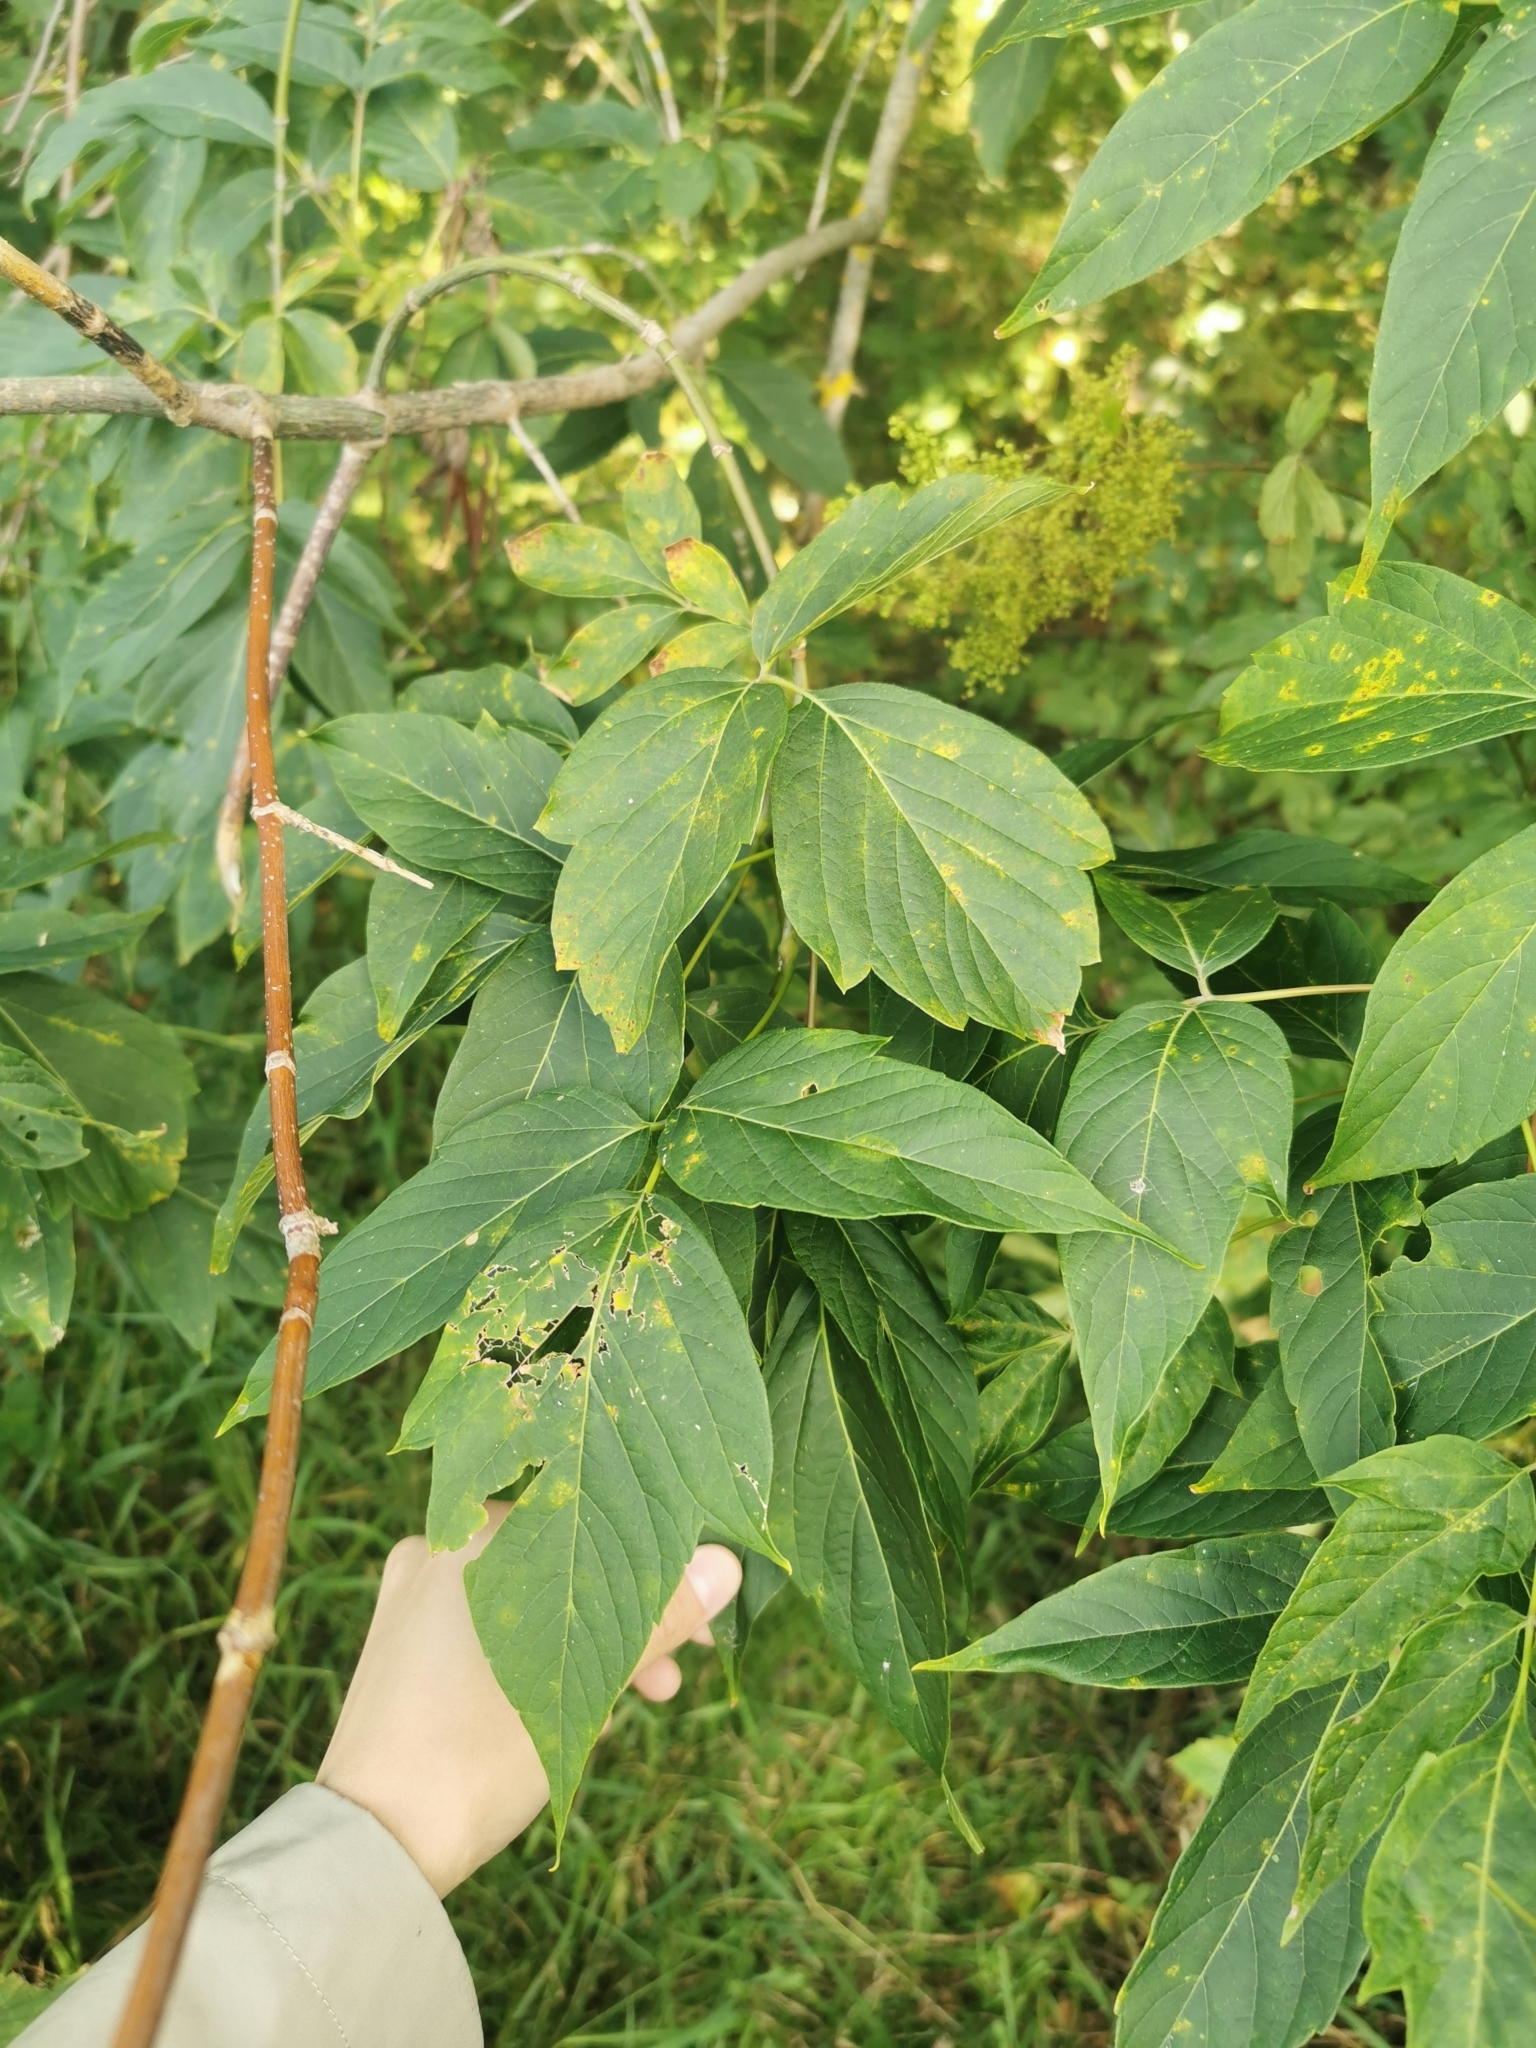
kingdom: Plantae
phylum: Tracheophyta
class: Magnoliopsida
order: Sapindales
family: Sapindaceae
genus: Acer
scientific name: Acer negundo
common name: Ashleaf maple
